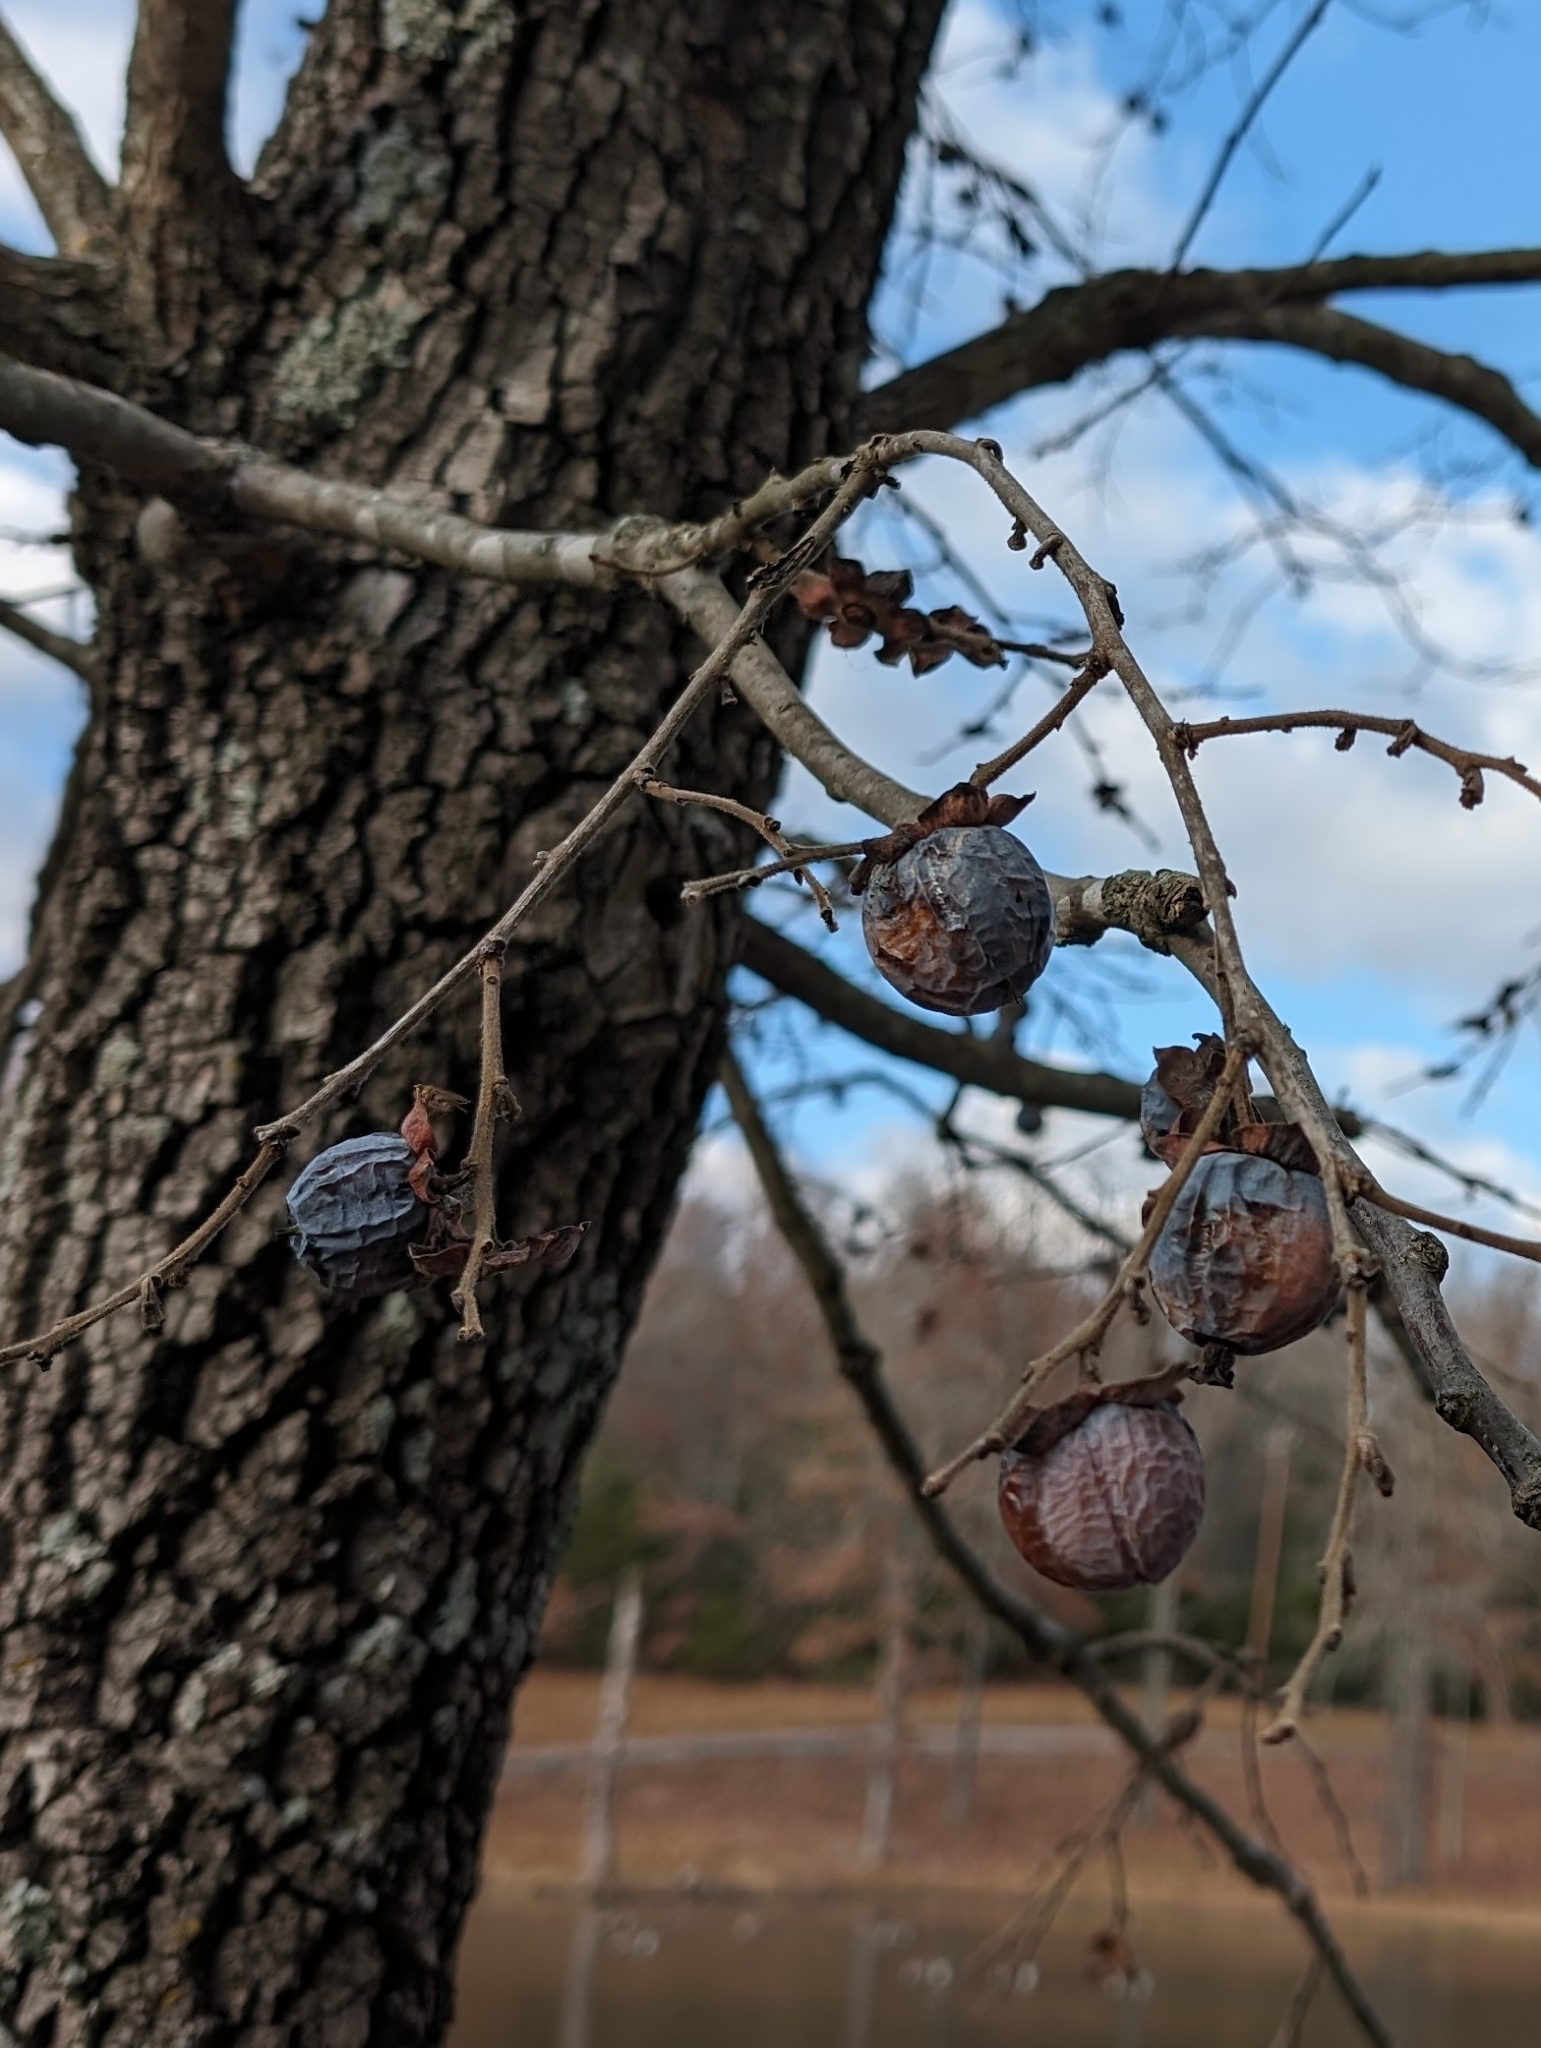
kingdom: Plantae
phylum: Tracheophyta
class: Magnoliopsida
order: Ericales
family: Ebenaceae
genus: Diospyros
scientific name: Diospyros virginiana
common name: Persimmon
